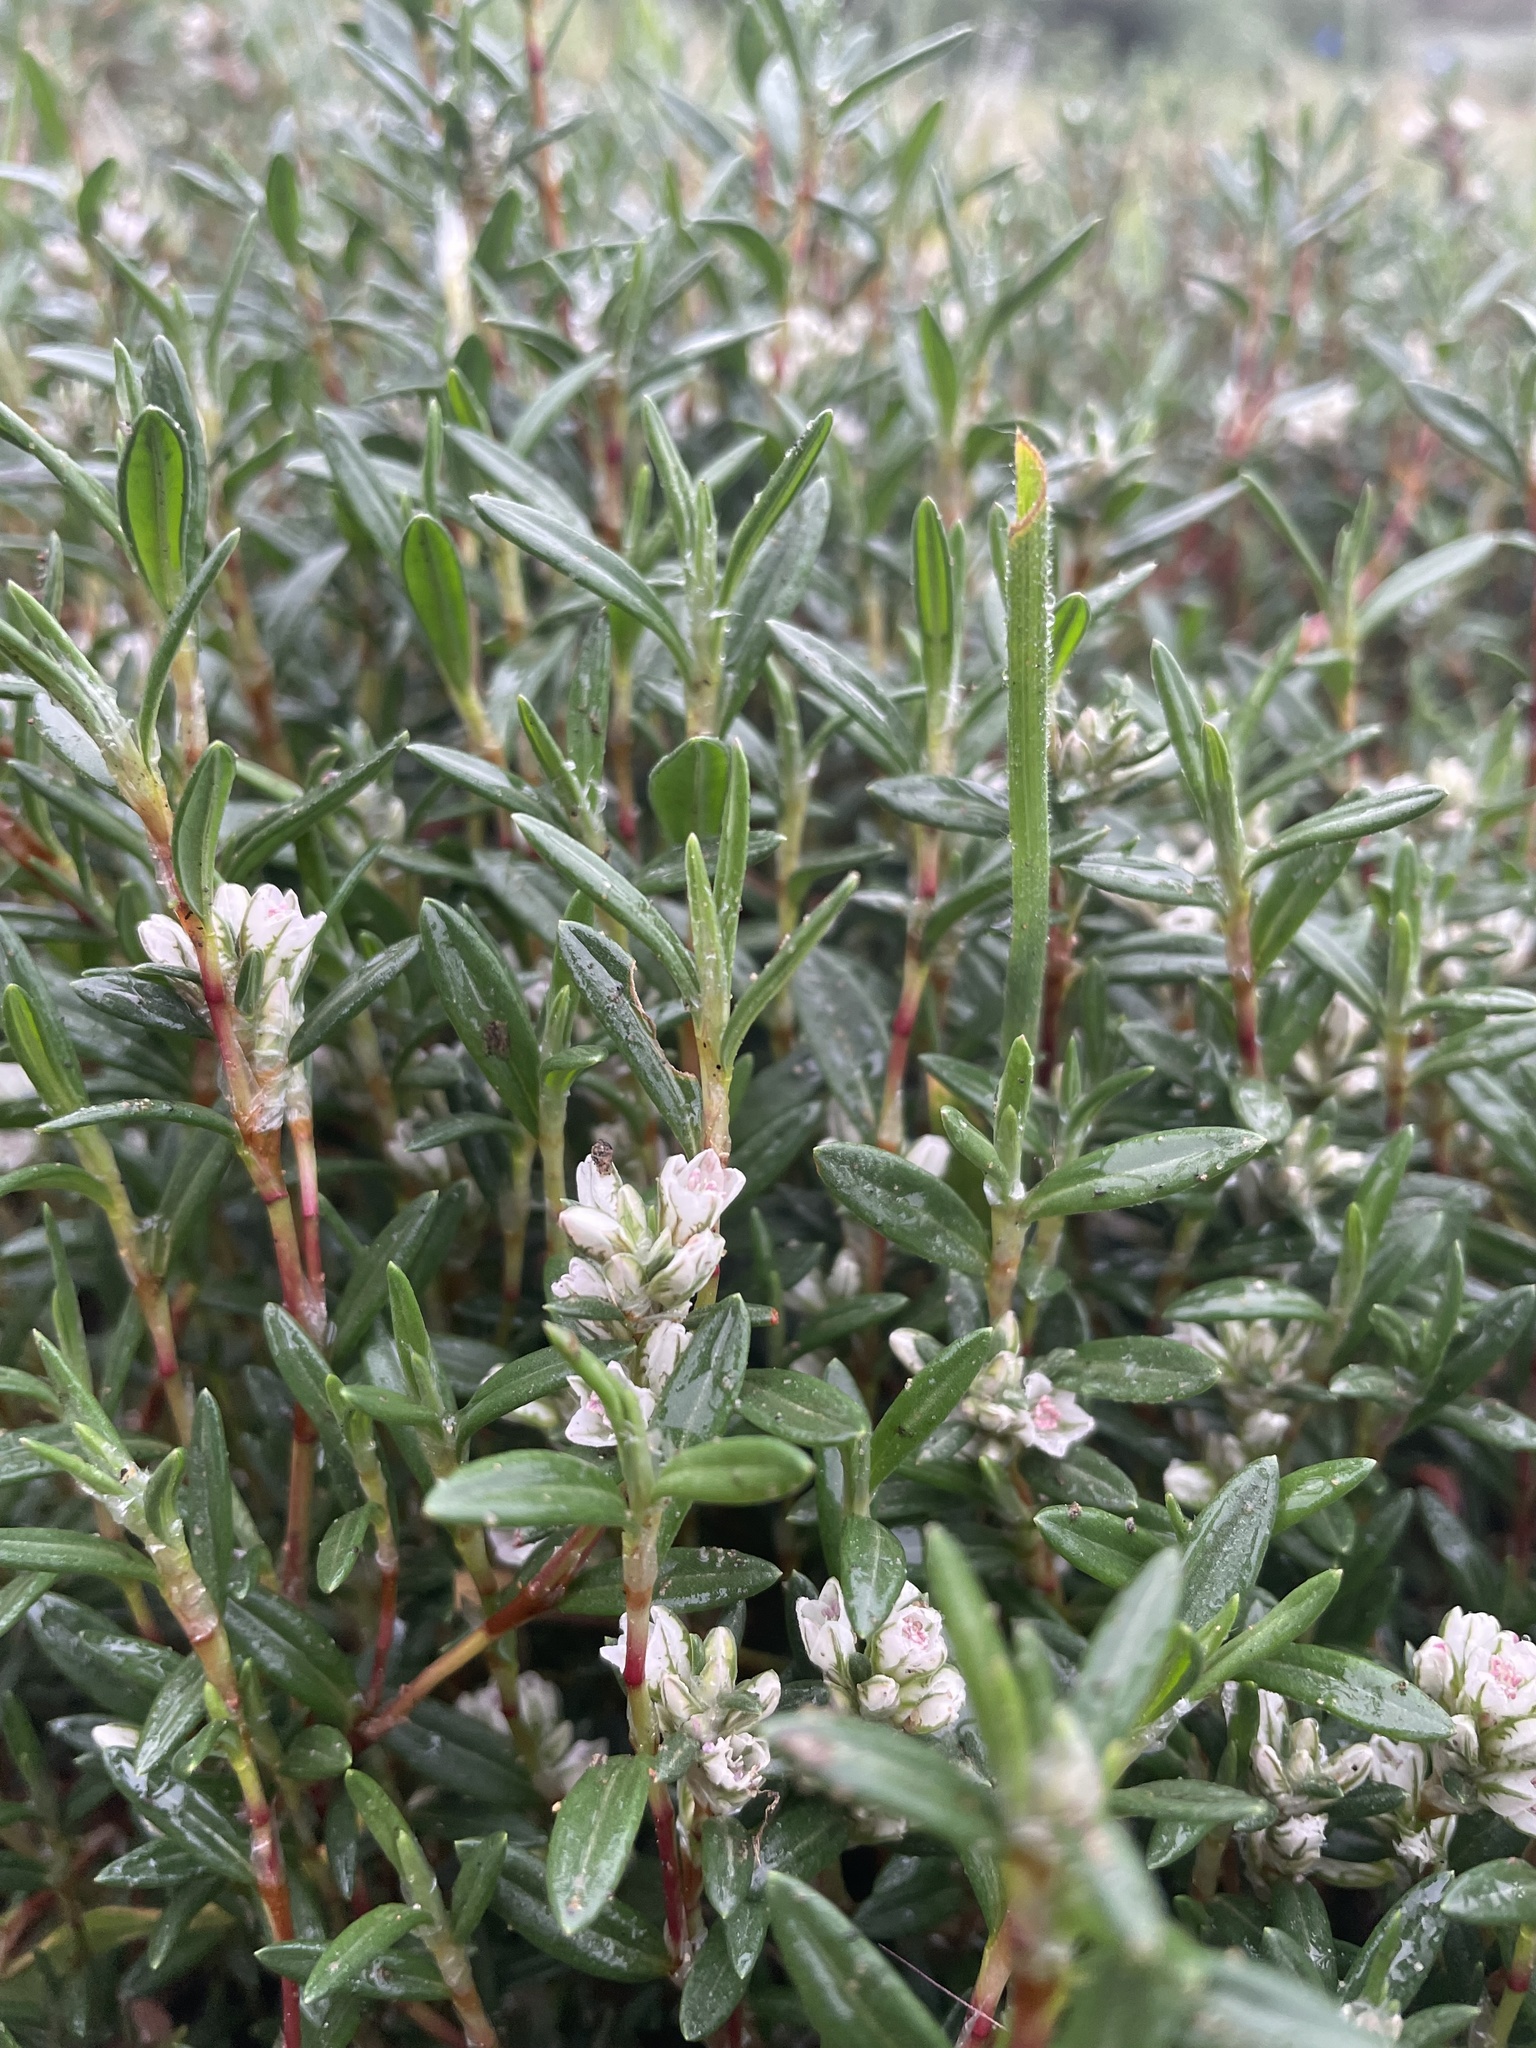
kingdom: Plantae
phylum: Tracheophyta
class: Magnoliopsida
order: Caryophyllales
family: Polygonaceae
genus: Polygonum
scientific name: Polygonum paronychia
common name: Dune knotweed
